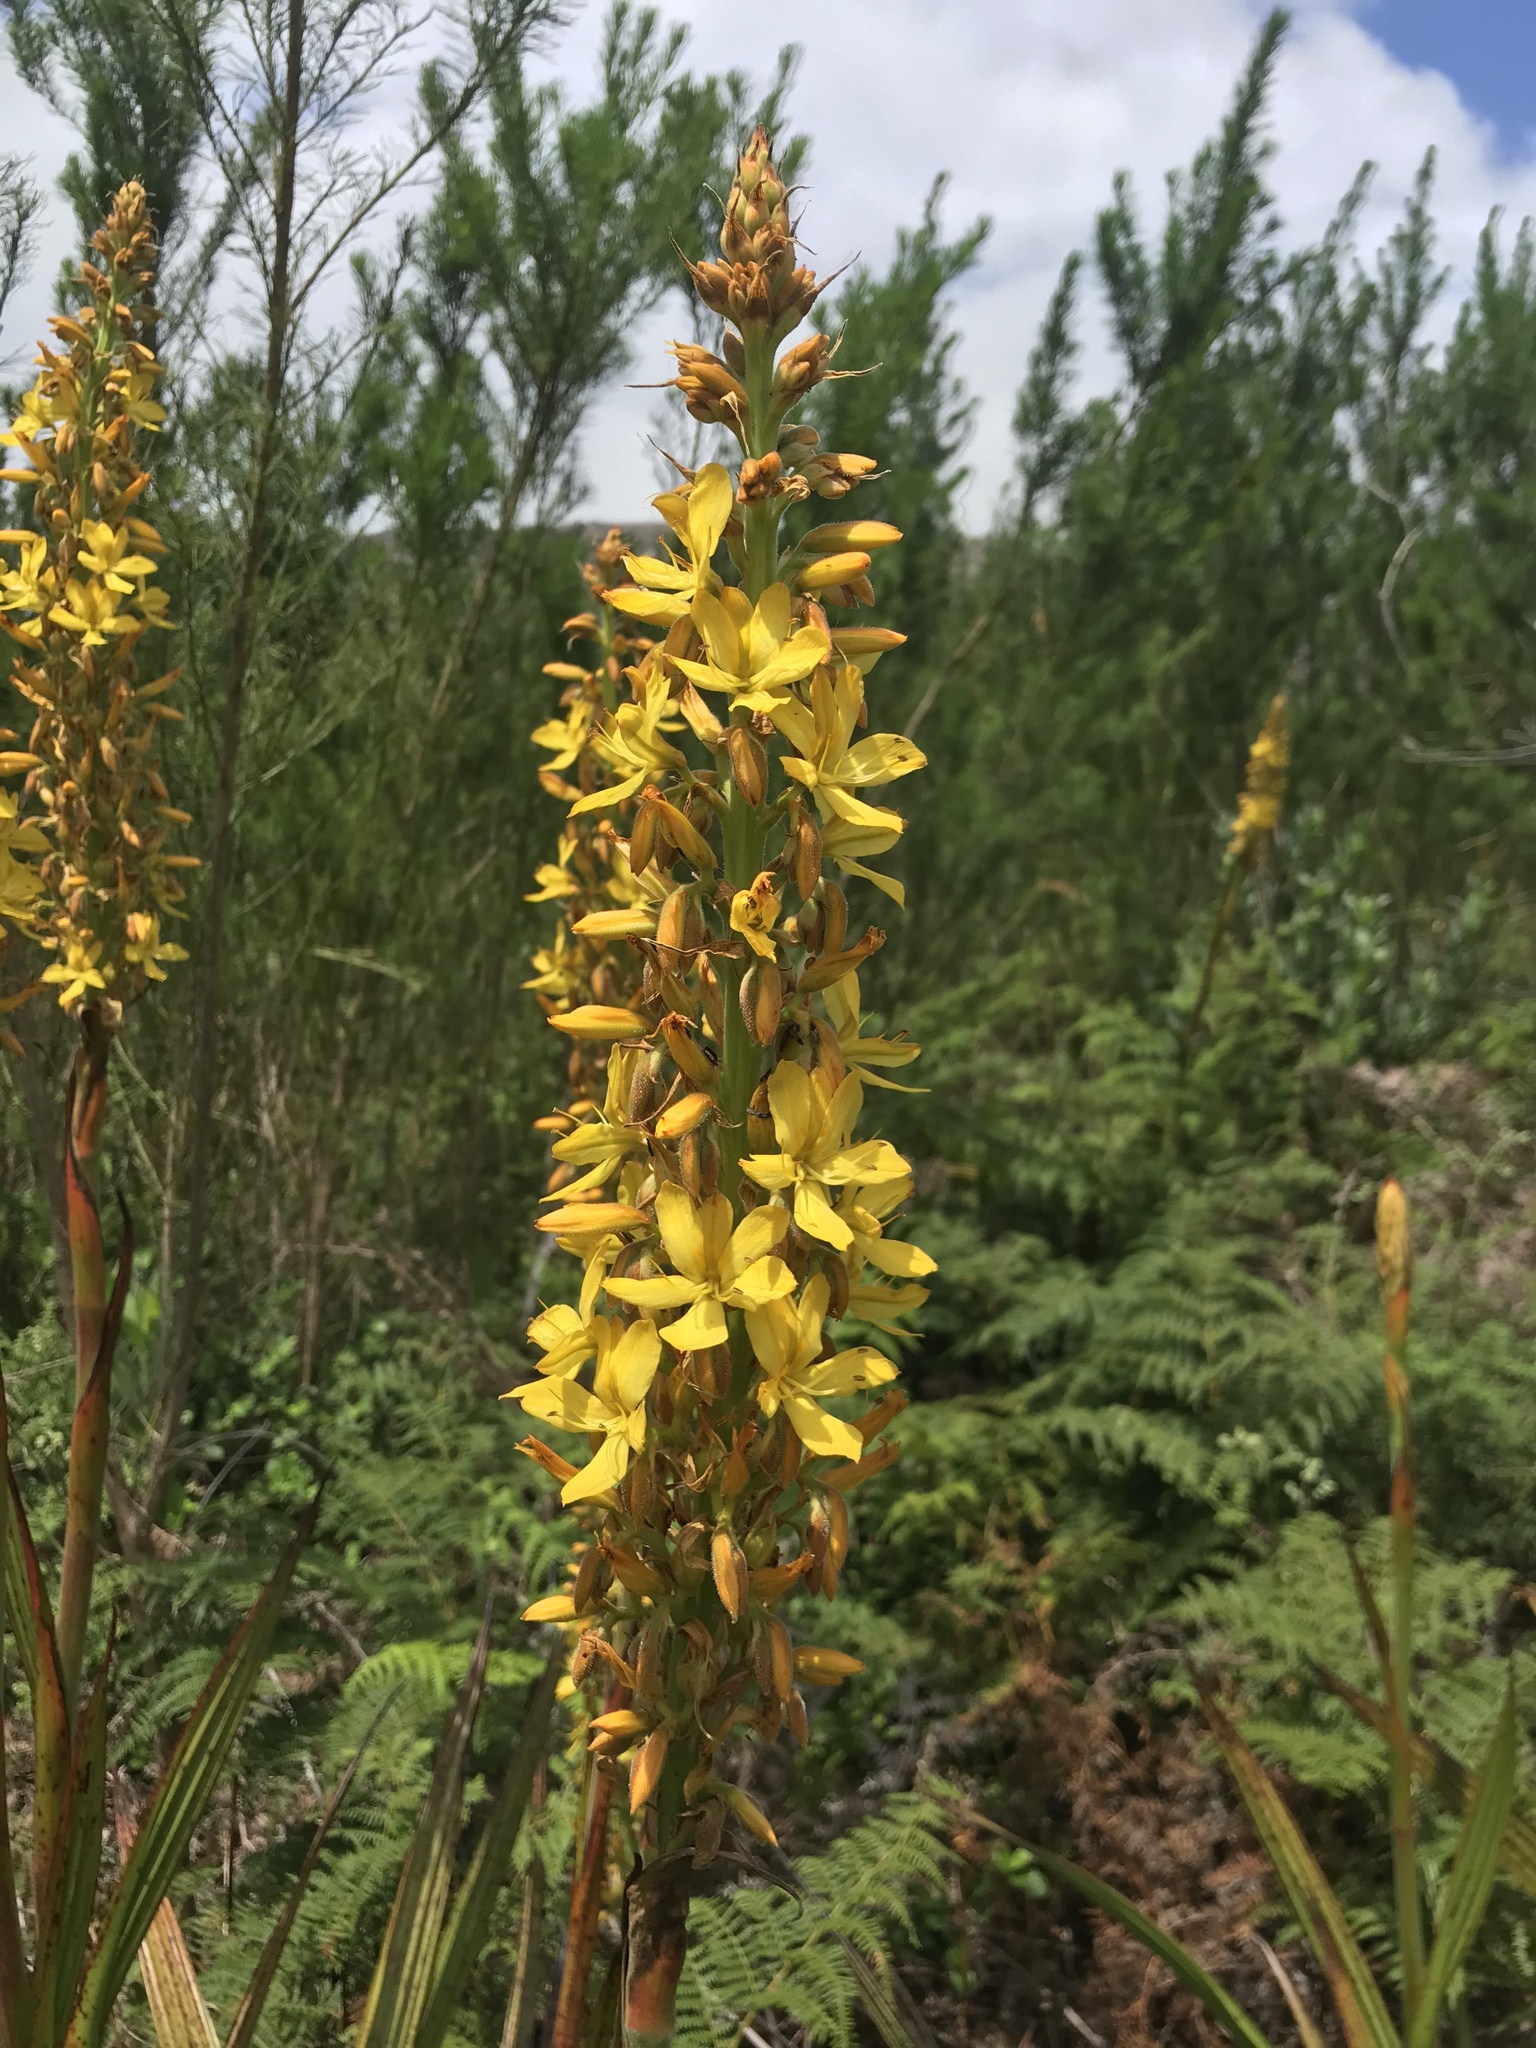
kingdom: Plantae
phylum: Tracheophyta
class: Liliopsida
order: Commelinales
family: Haemodoraceae
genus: Wachendorfia
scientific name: Wachendorfia thyrsiflora
